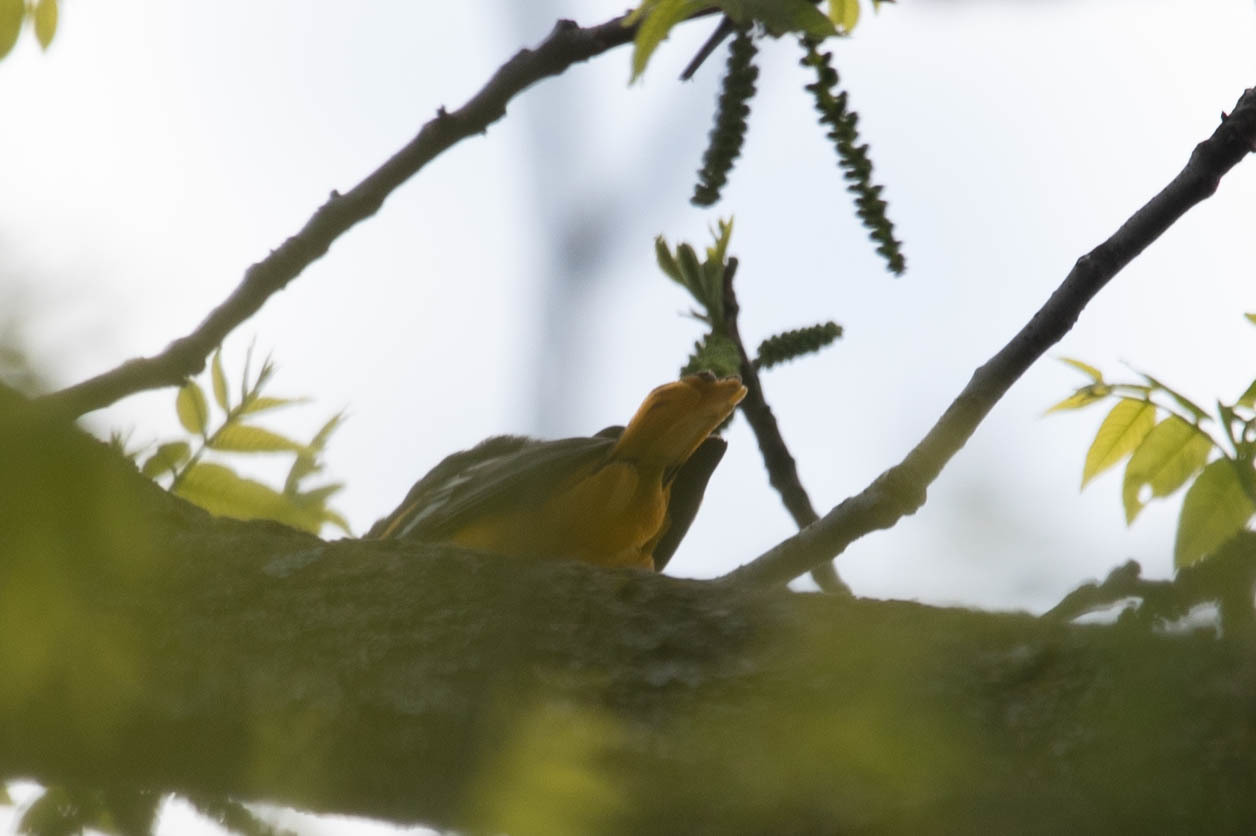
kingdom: Animalia
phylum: Chordata
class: Aves
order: Passeriformes
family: Icteridae
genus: Icterus
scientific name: Icterus galbula
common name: Baltimore oriole
